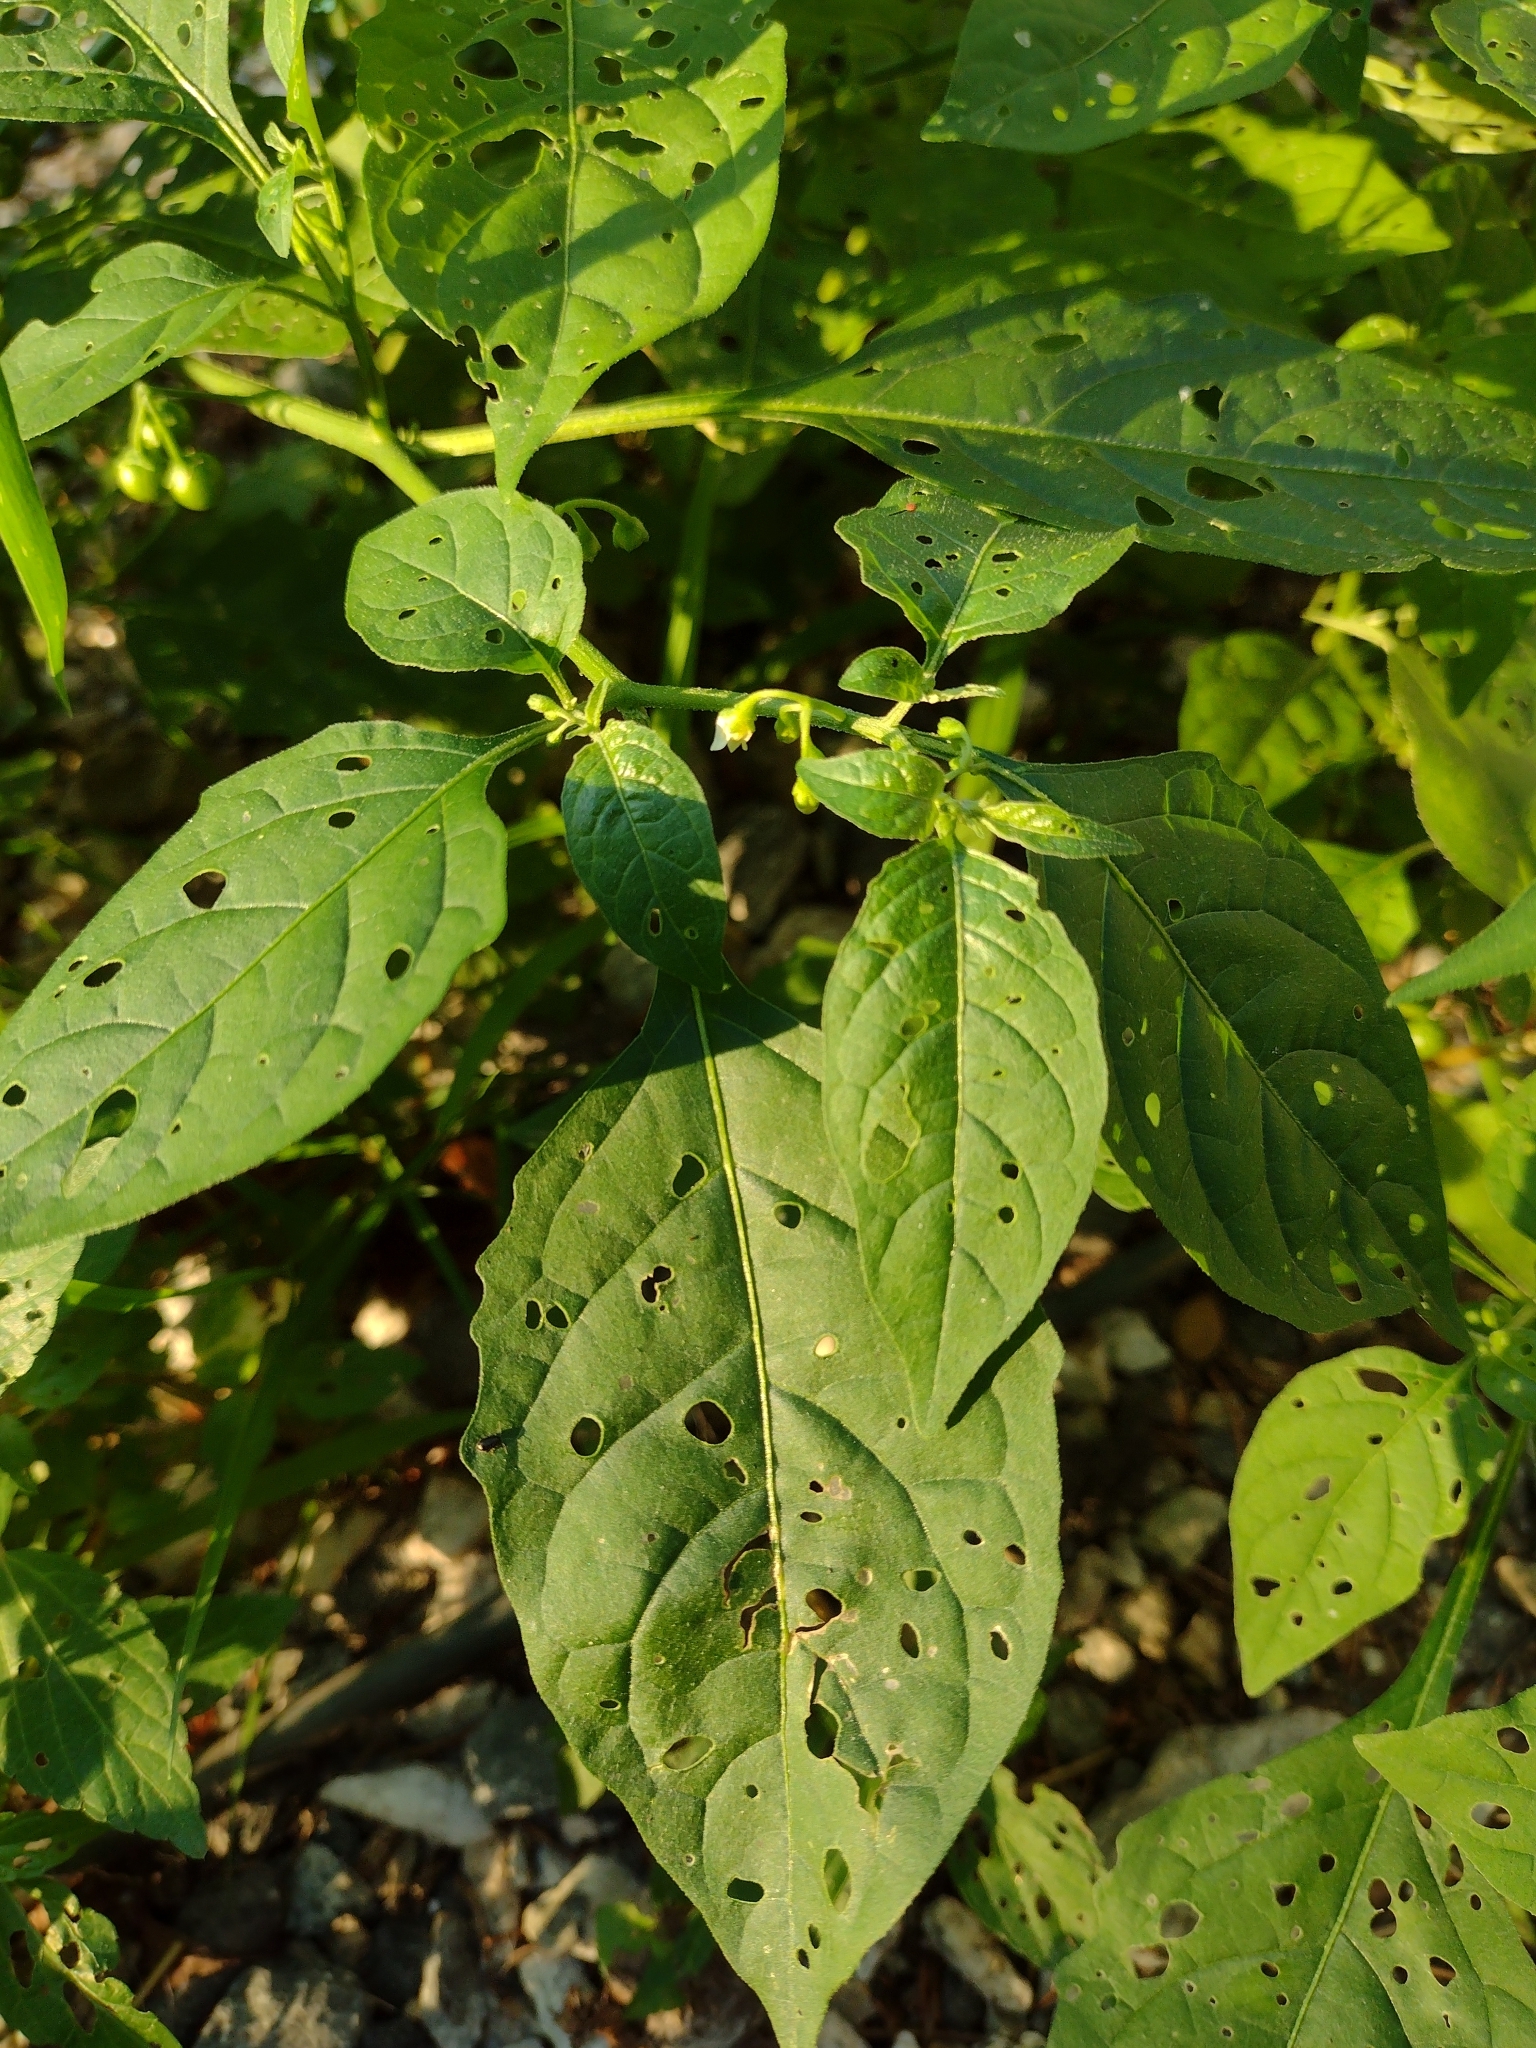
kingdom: Plantae
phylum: Tracheophyta
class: Magnoliopsida
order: Solanales
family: Solanaceae
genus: Solanum
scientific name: Solanum emulans
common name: Eastern black nightshade
